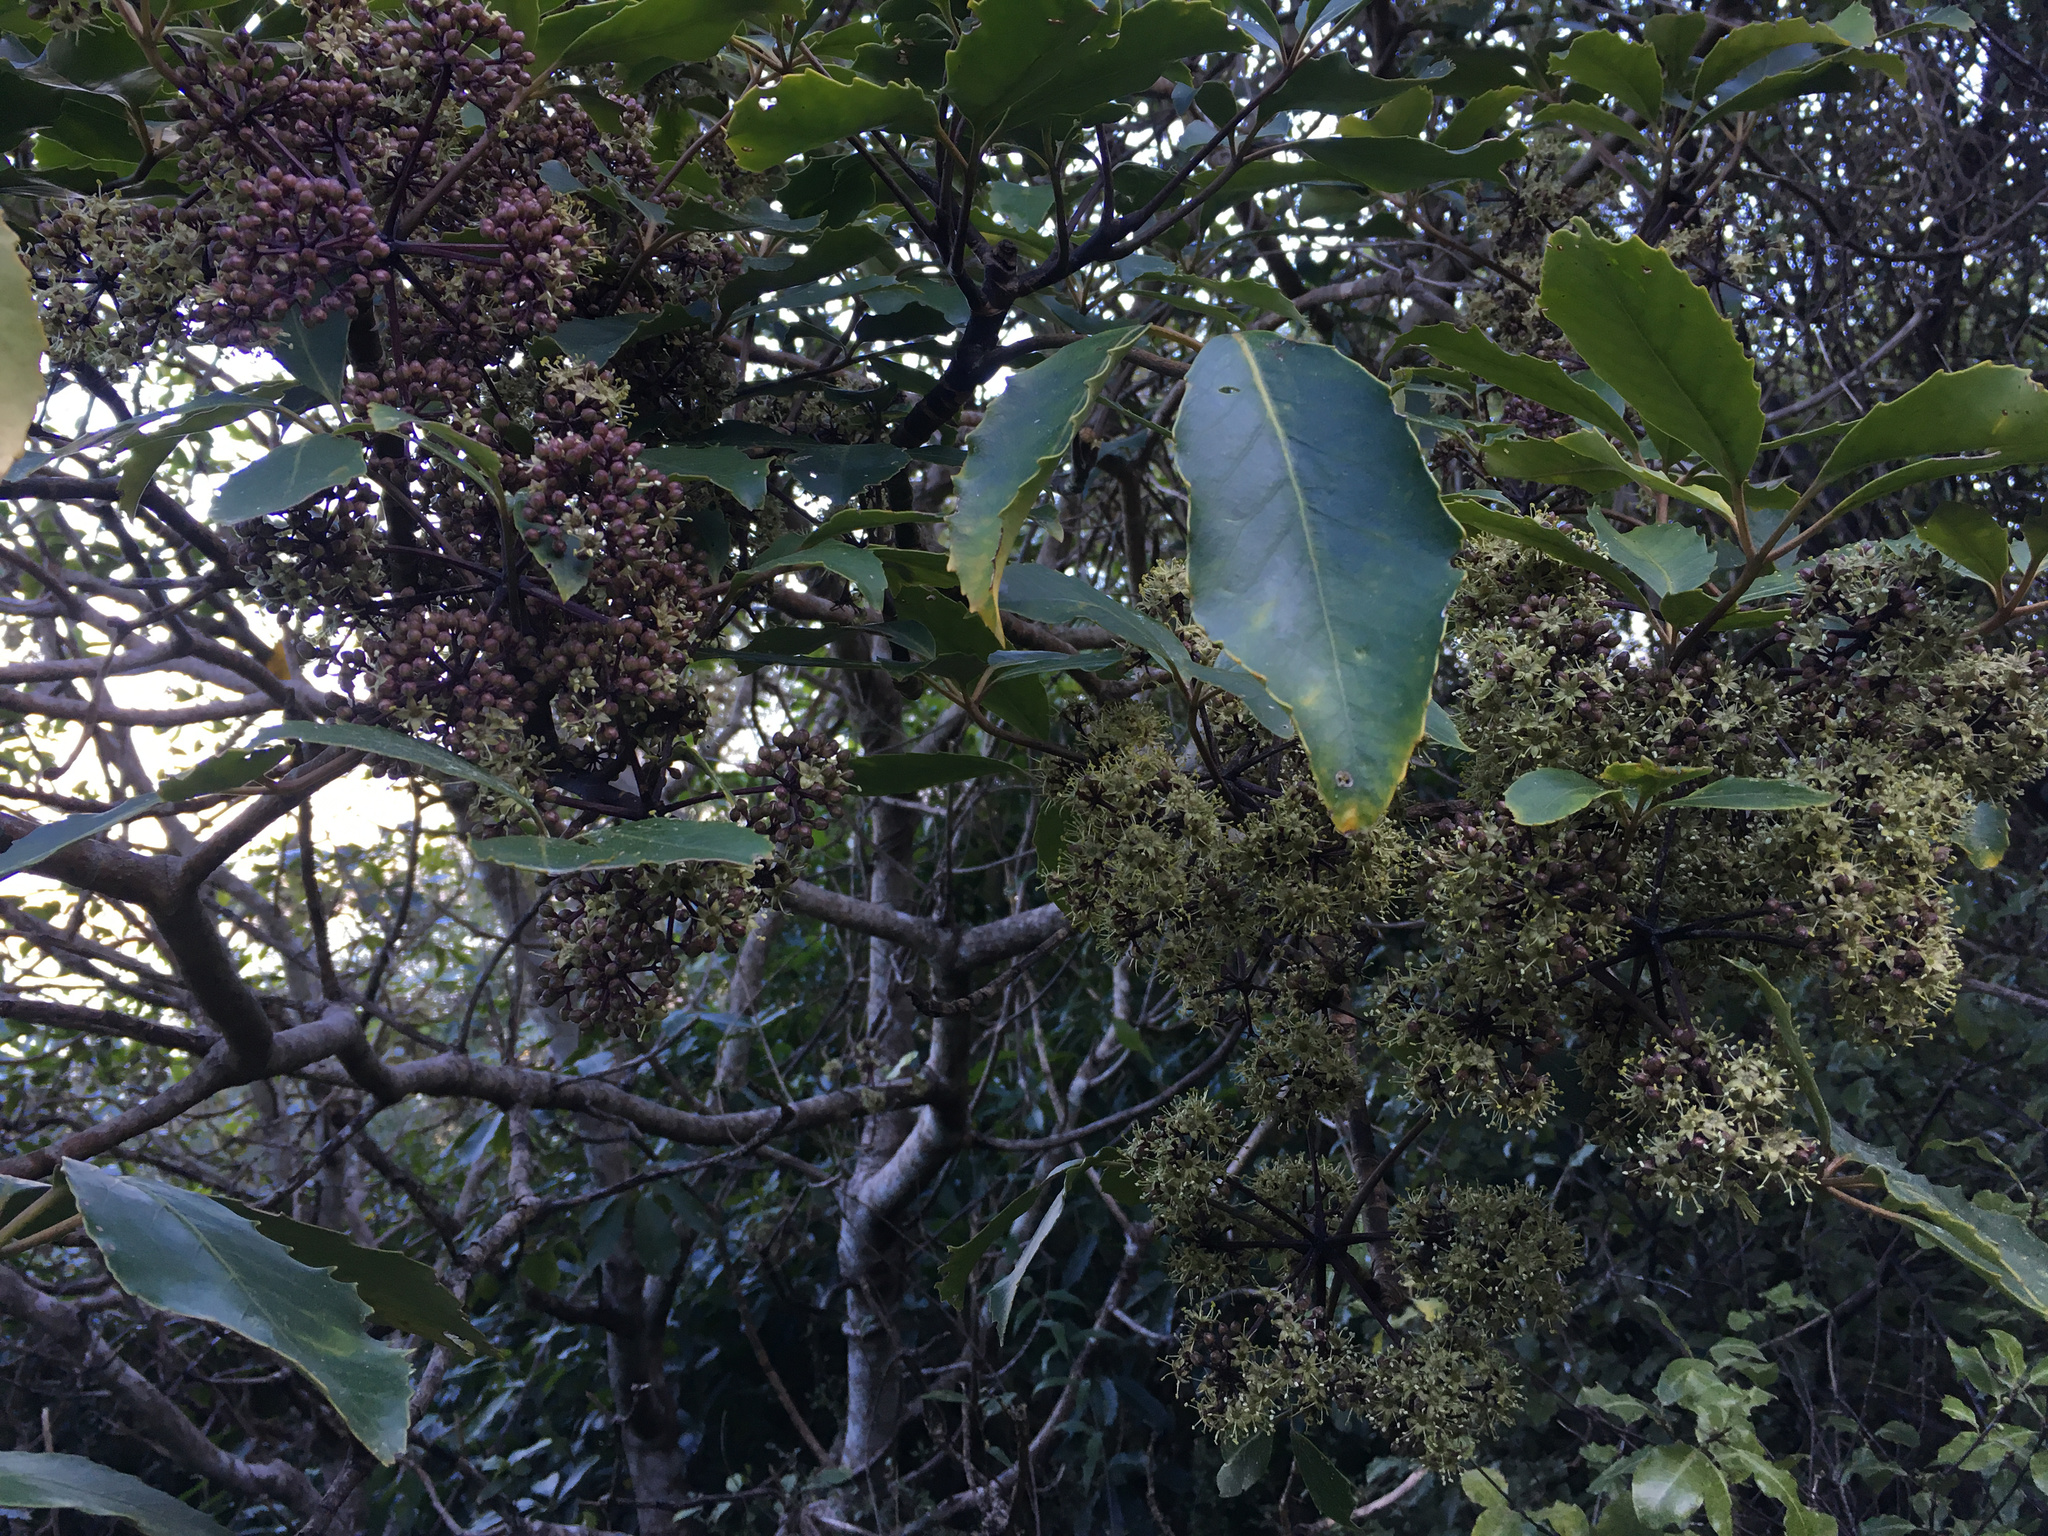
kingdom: Plantae
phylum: Tracheophyta
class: Magnoliopsida
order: Apiales
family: Araliaceae
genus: Neopanax
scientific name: Neopanax arboreus
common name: Five-fingers
